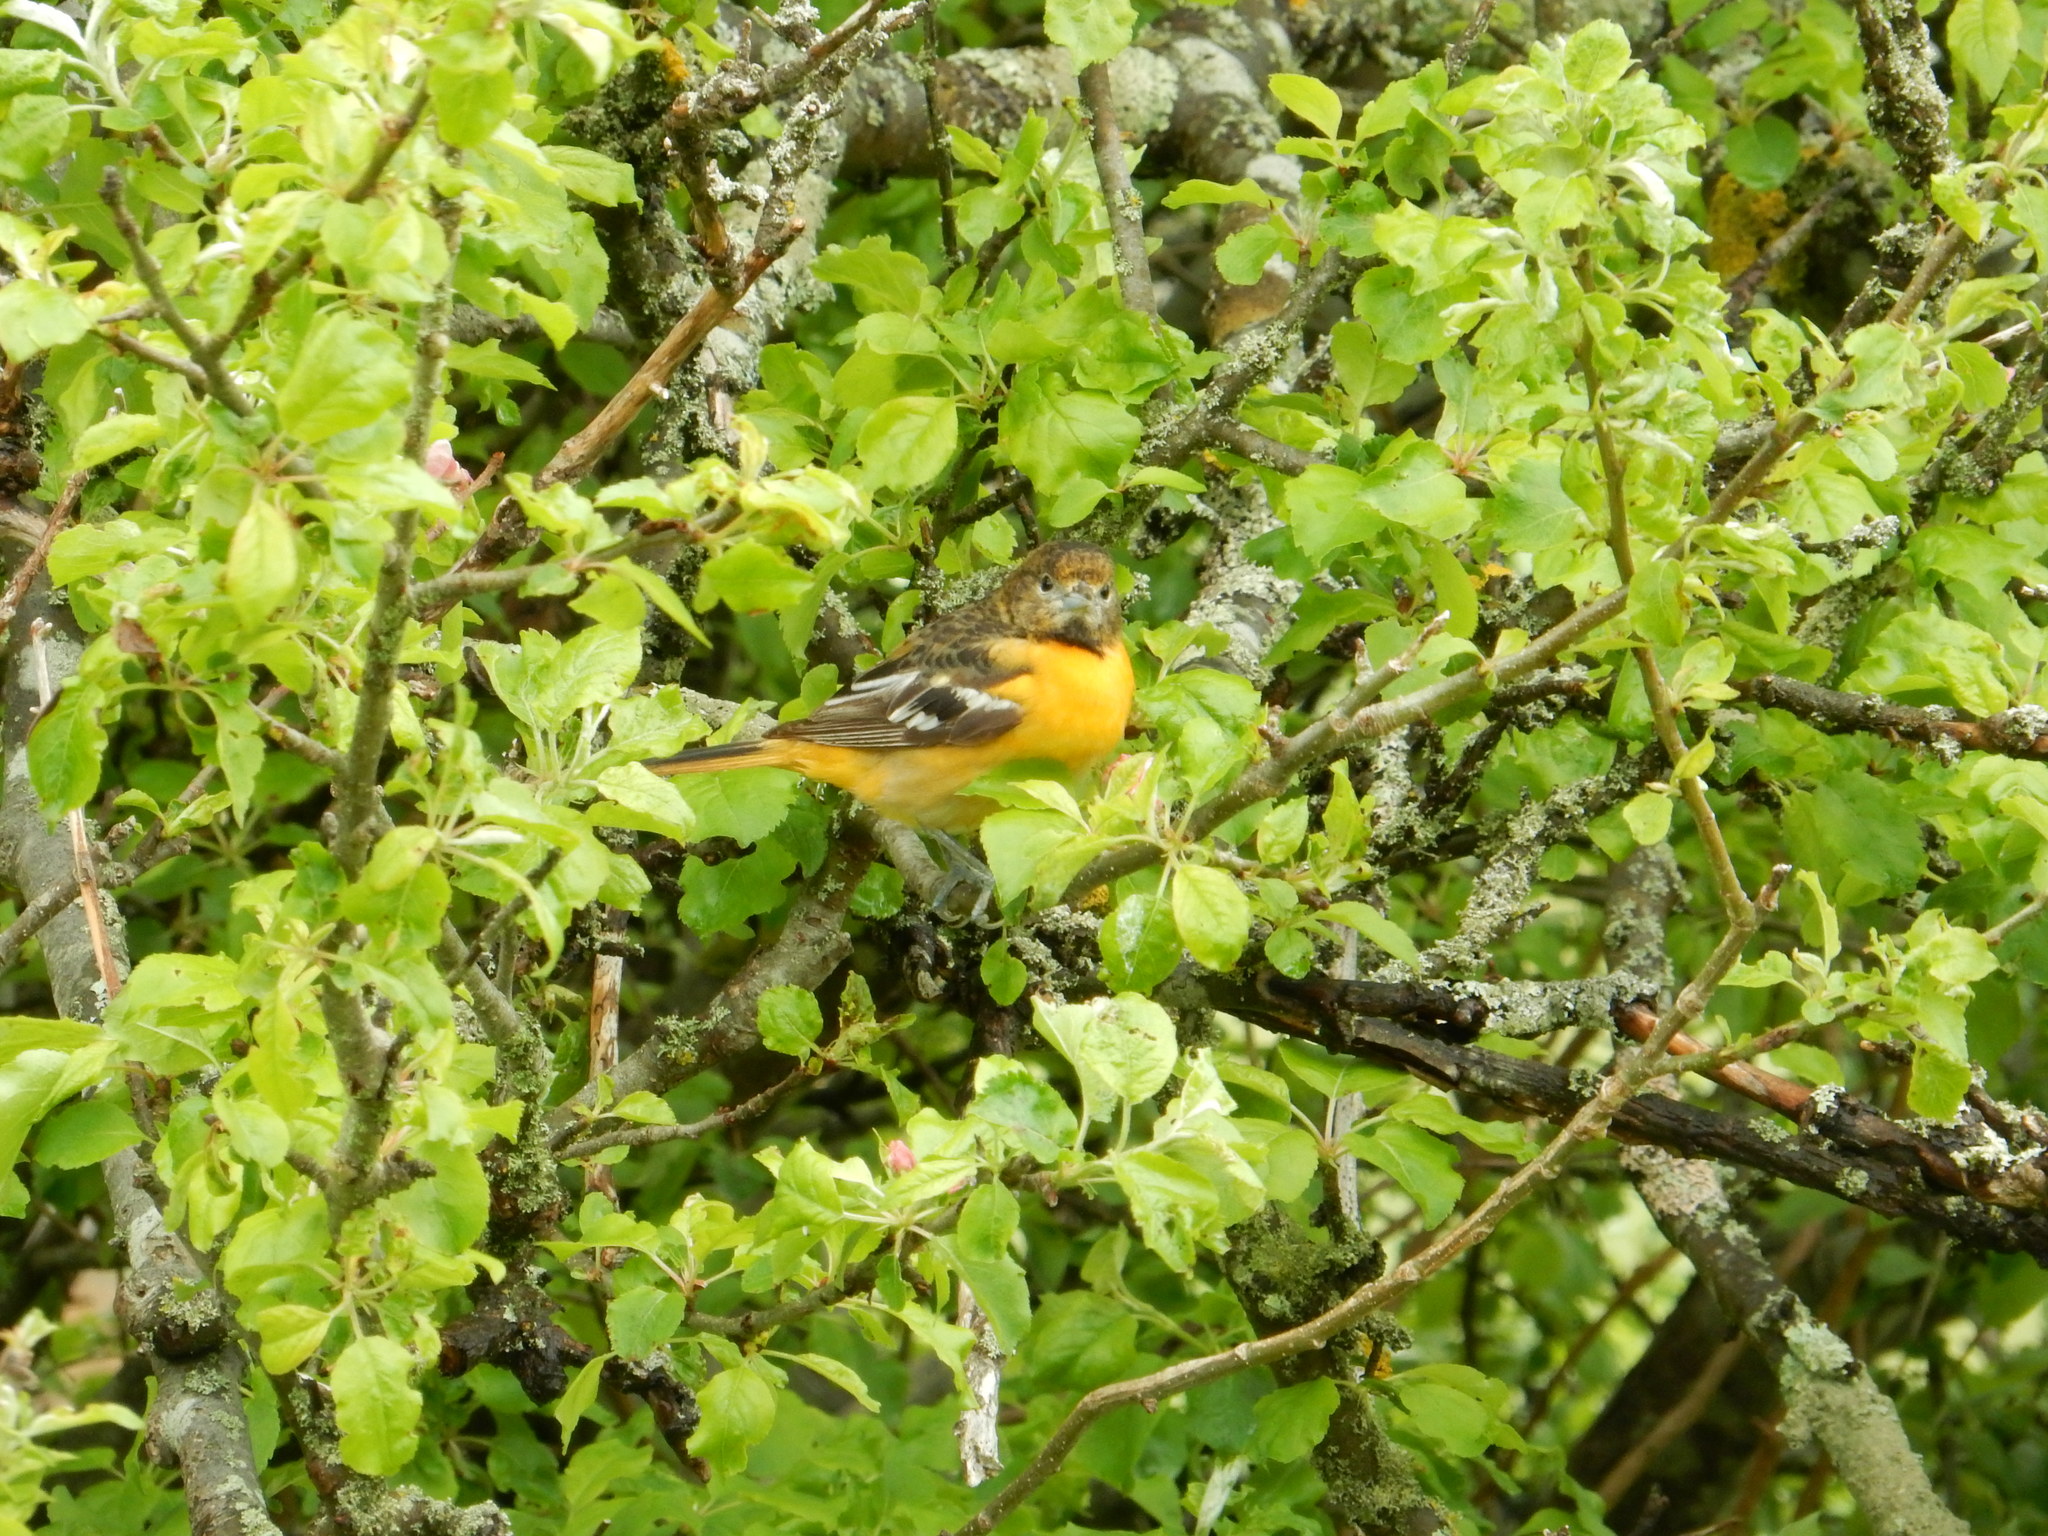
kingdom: Animalia
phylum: Chordata
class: Aves
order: Passeriformes
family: Icteridae
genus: Icterus
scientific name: Icterus galbula
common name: Baltimore oriole
